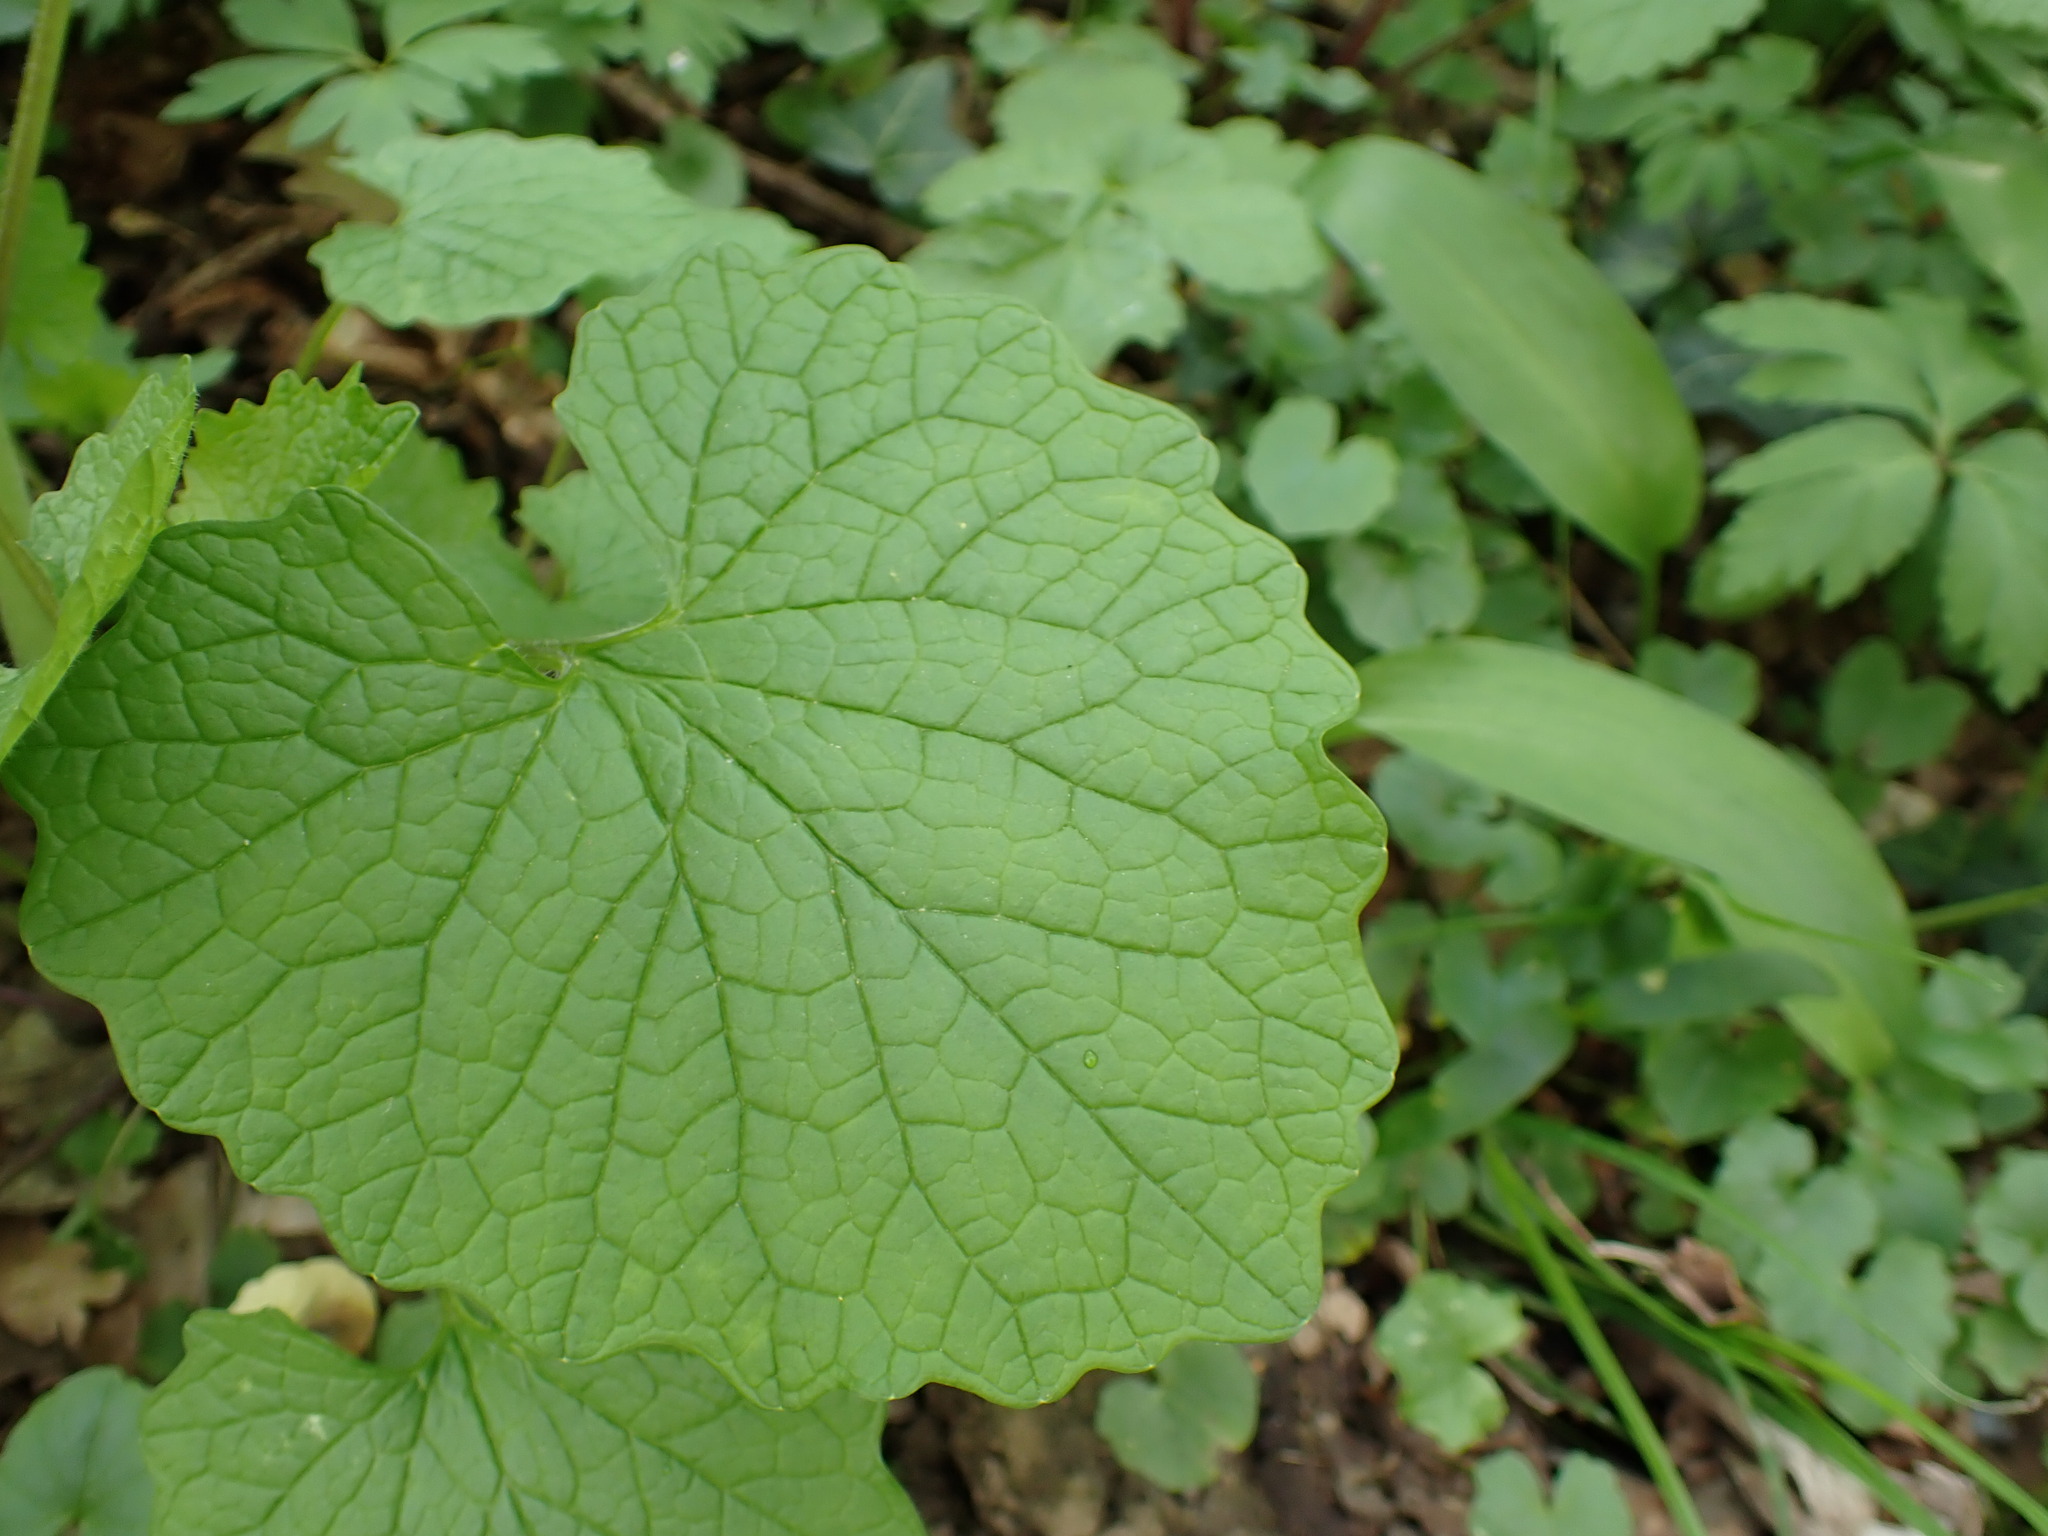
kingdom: Plantae
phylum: Tracheophyta
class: Magnoliopsida
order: Brassicales
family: Brassicaceae
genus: Alliaria
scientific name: Alliaria petiolata
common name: Garlic mustard
